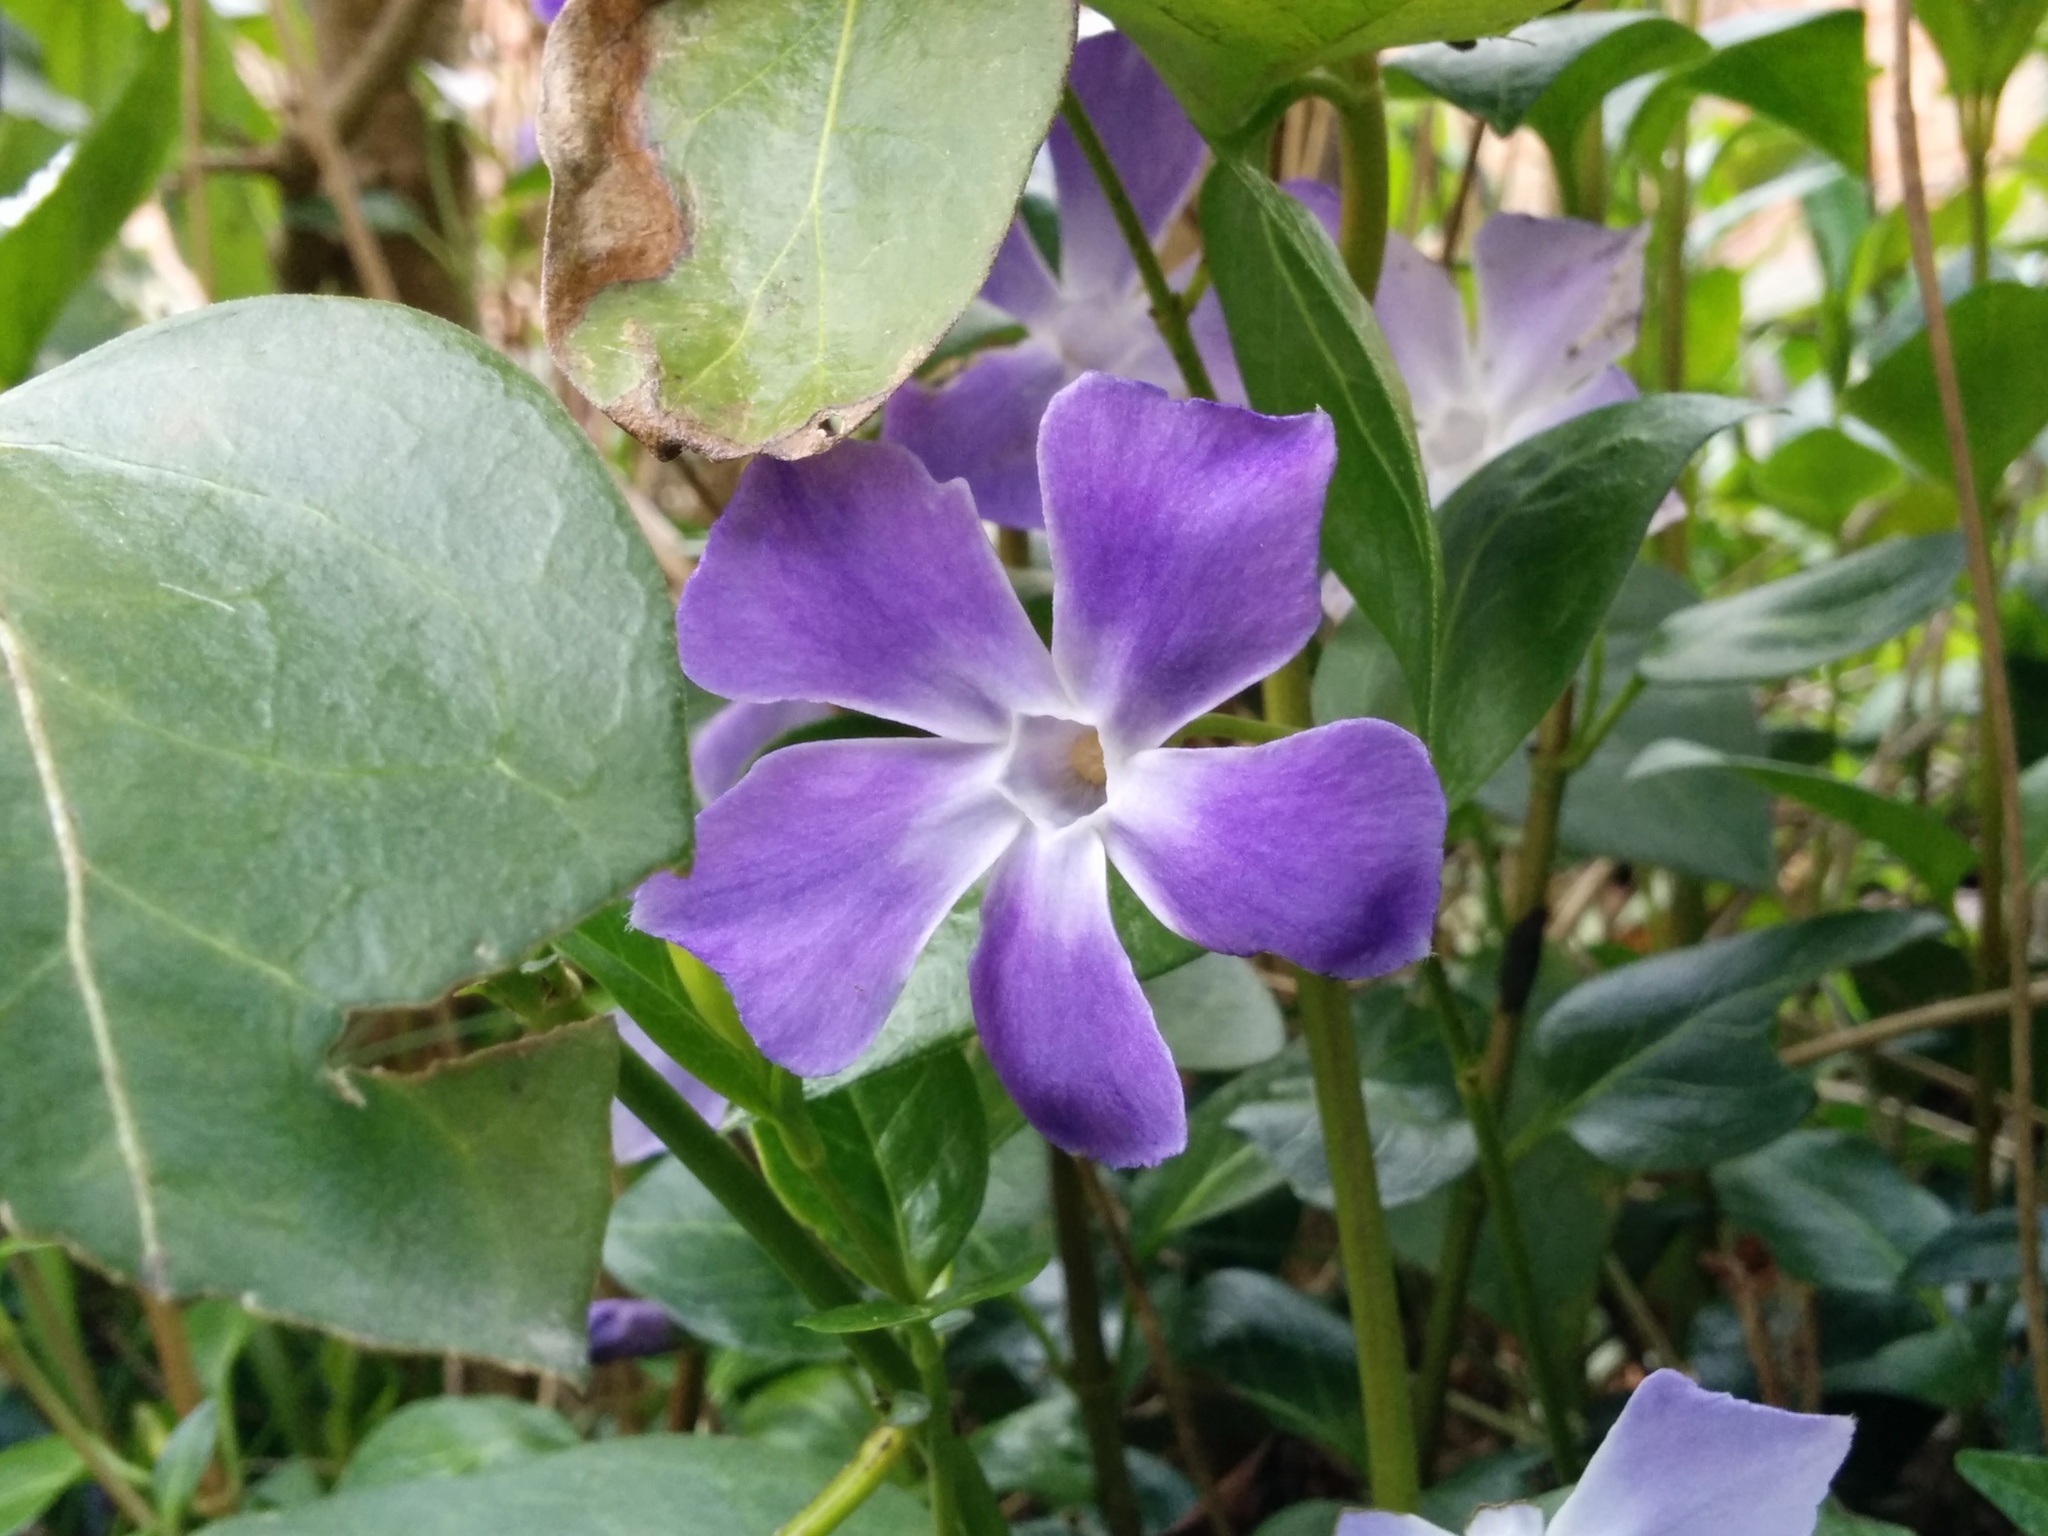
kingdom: Plantae
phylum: Tracheophyta
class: Magnoliopsida
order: Gentianales
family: Apocynaceae
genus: Vinca
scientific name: Vinca minor
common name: Lesser periwinkle
